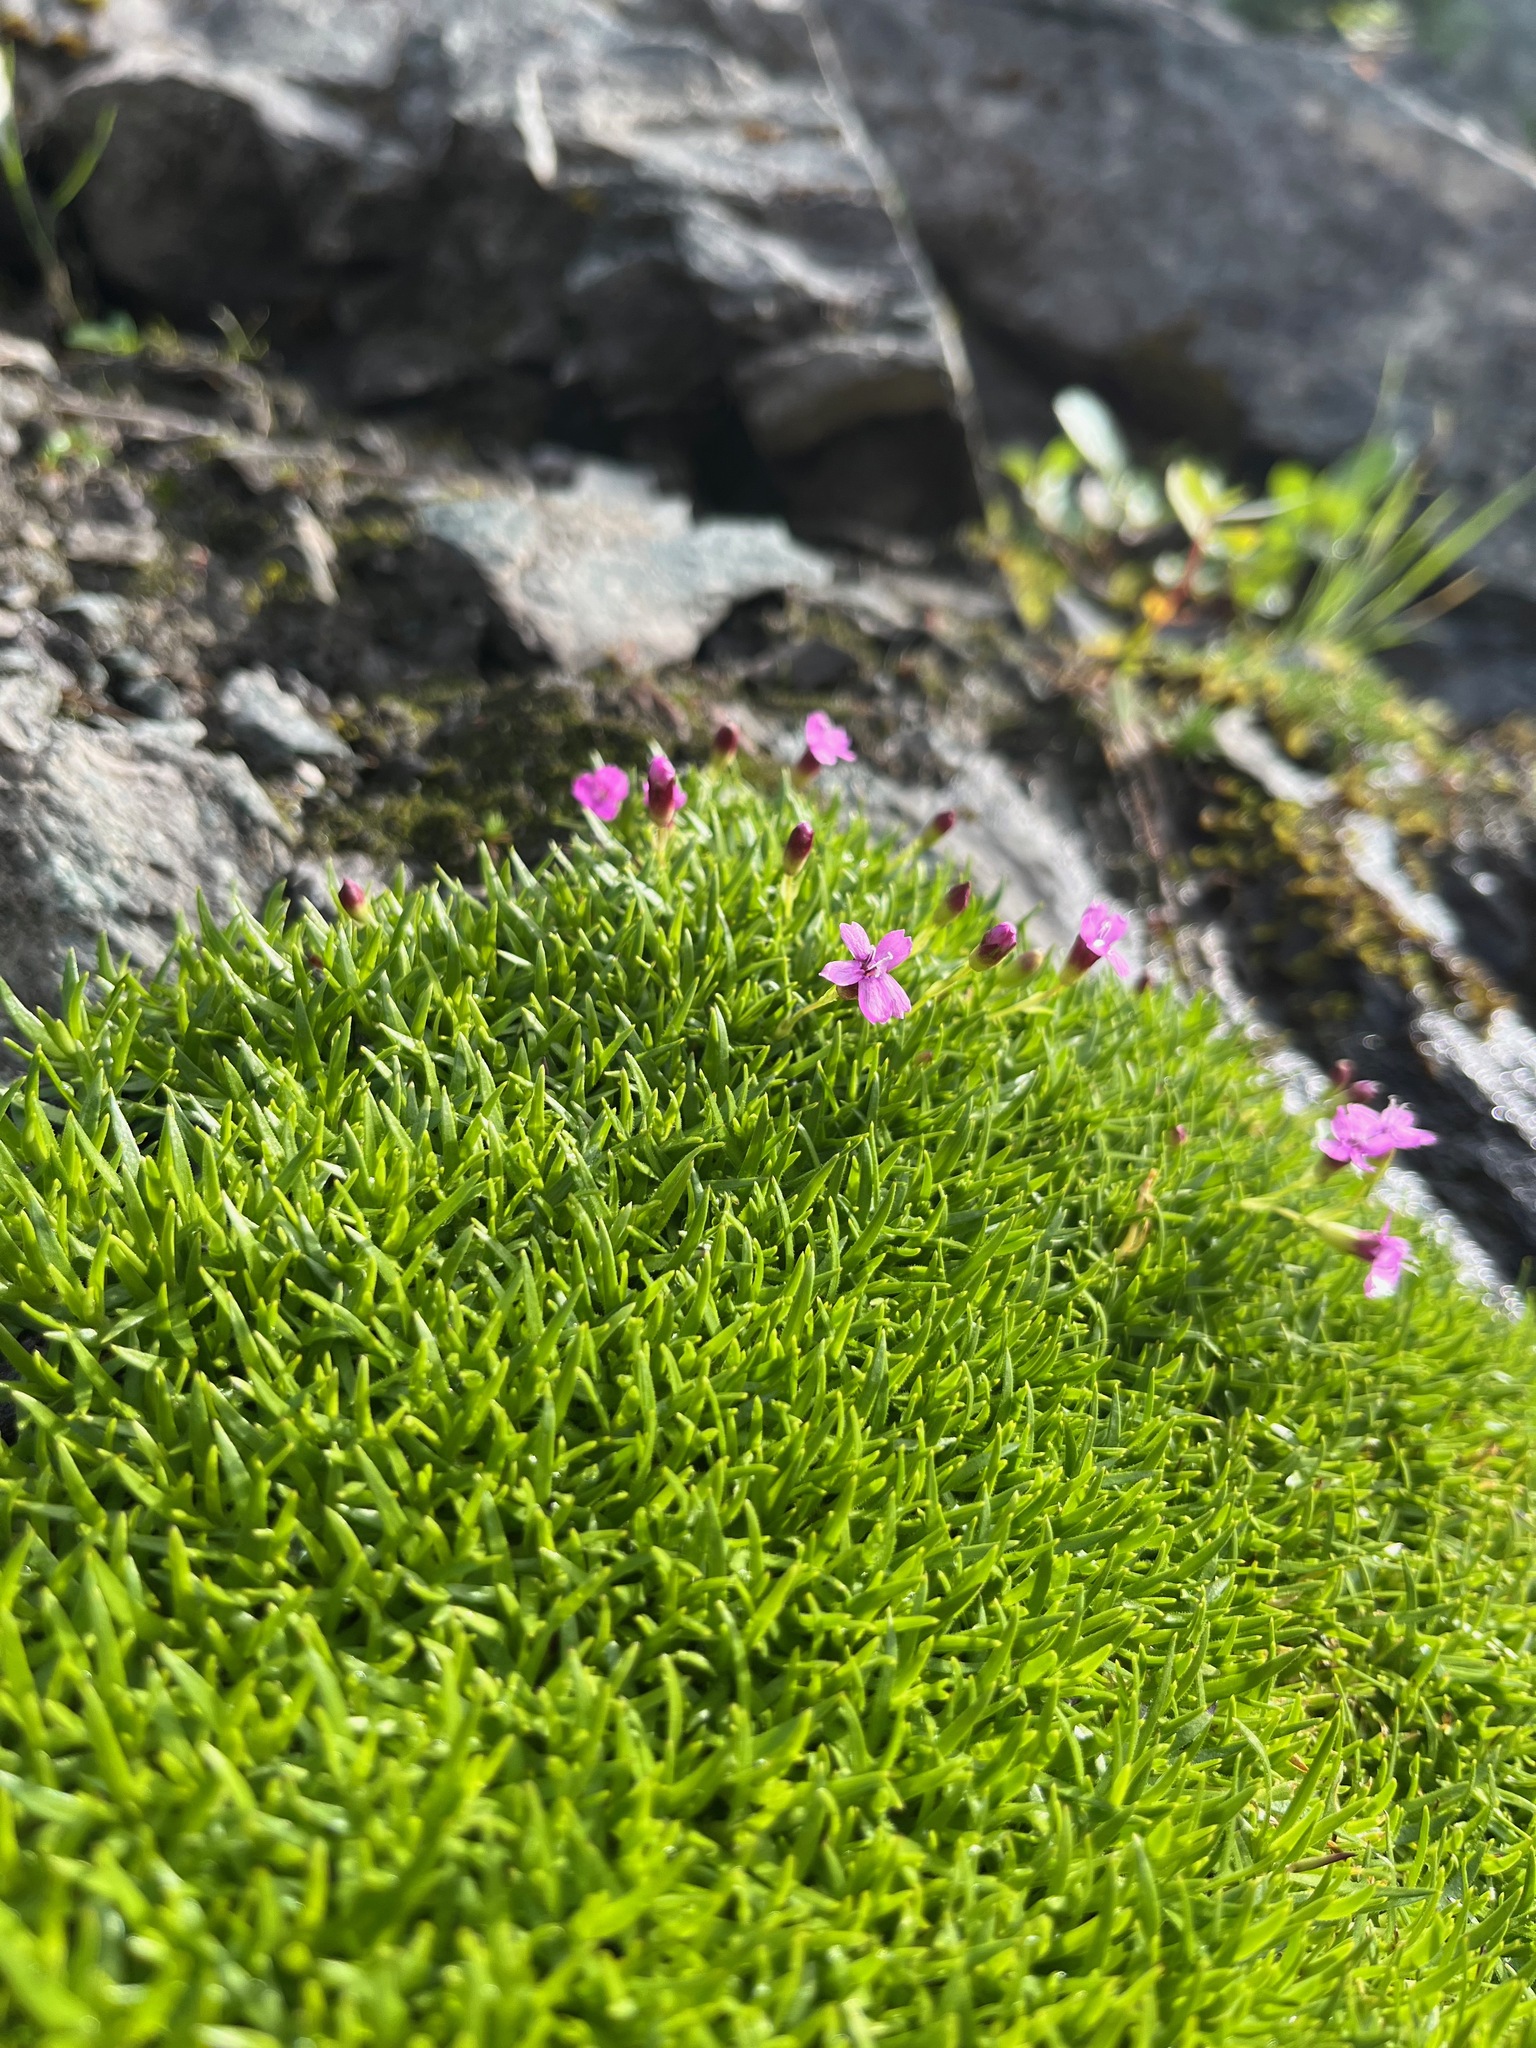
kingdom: Plantae
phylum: Tracheophyta
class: Magnoliopsida
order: Caryophyllales
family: Caryophyllaceae
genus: Silene
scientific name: Silene acaulis
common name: Moss campion
